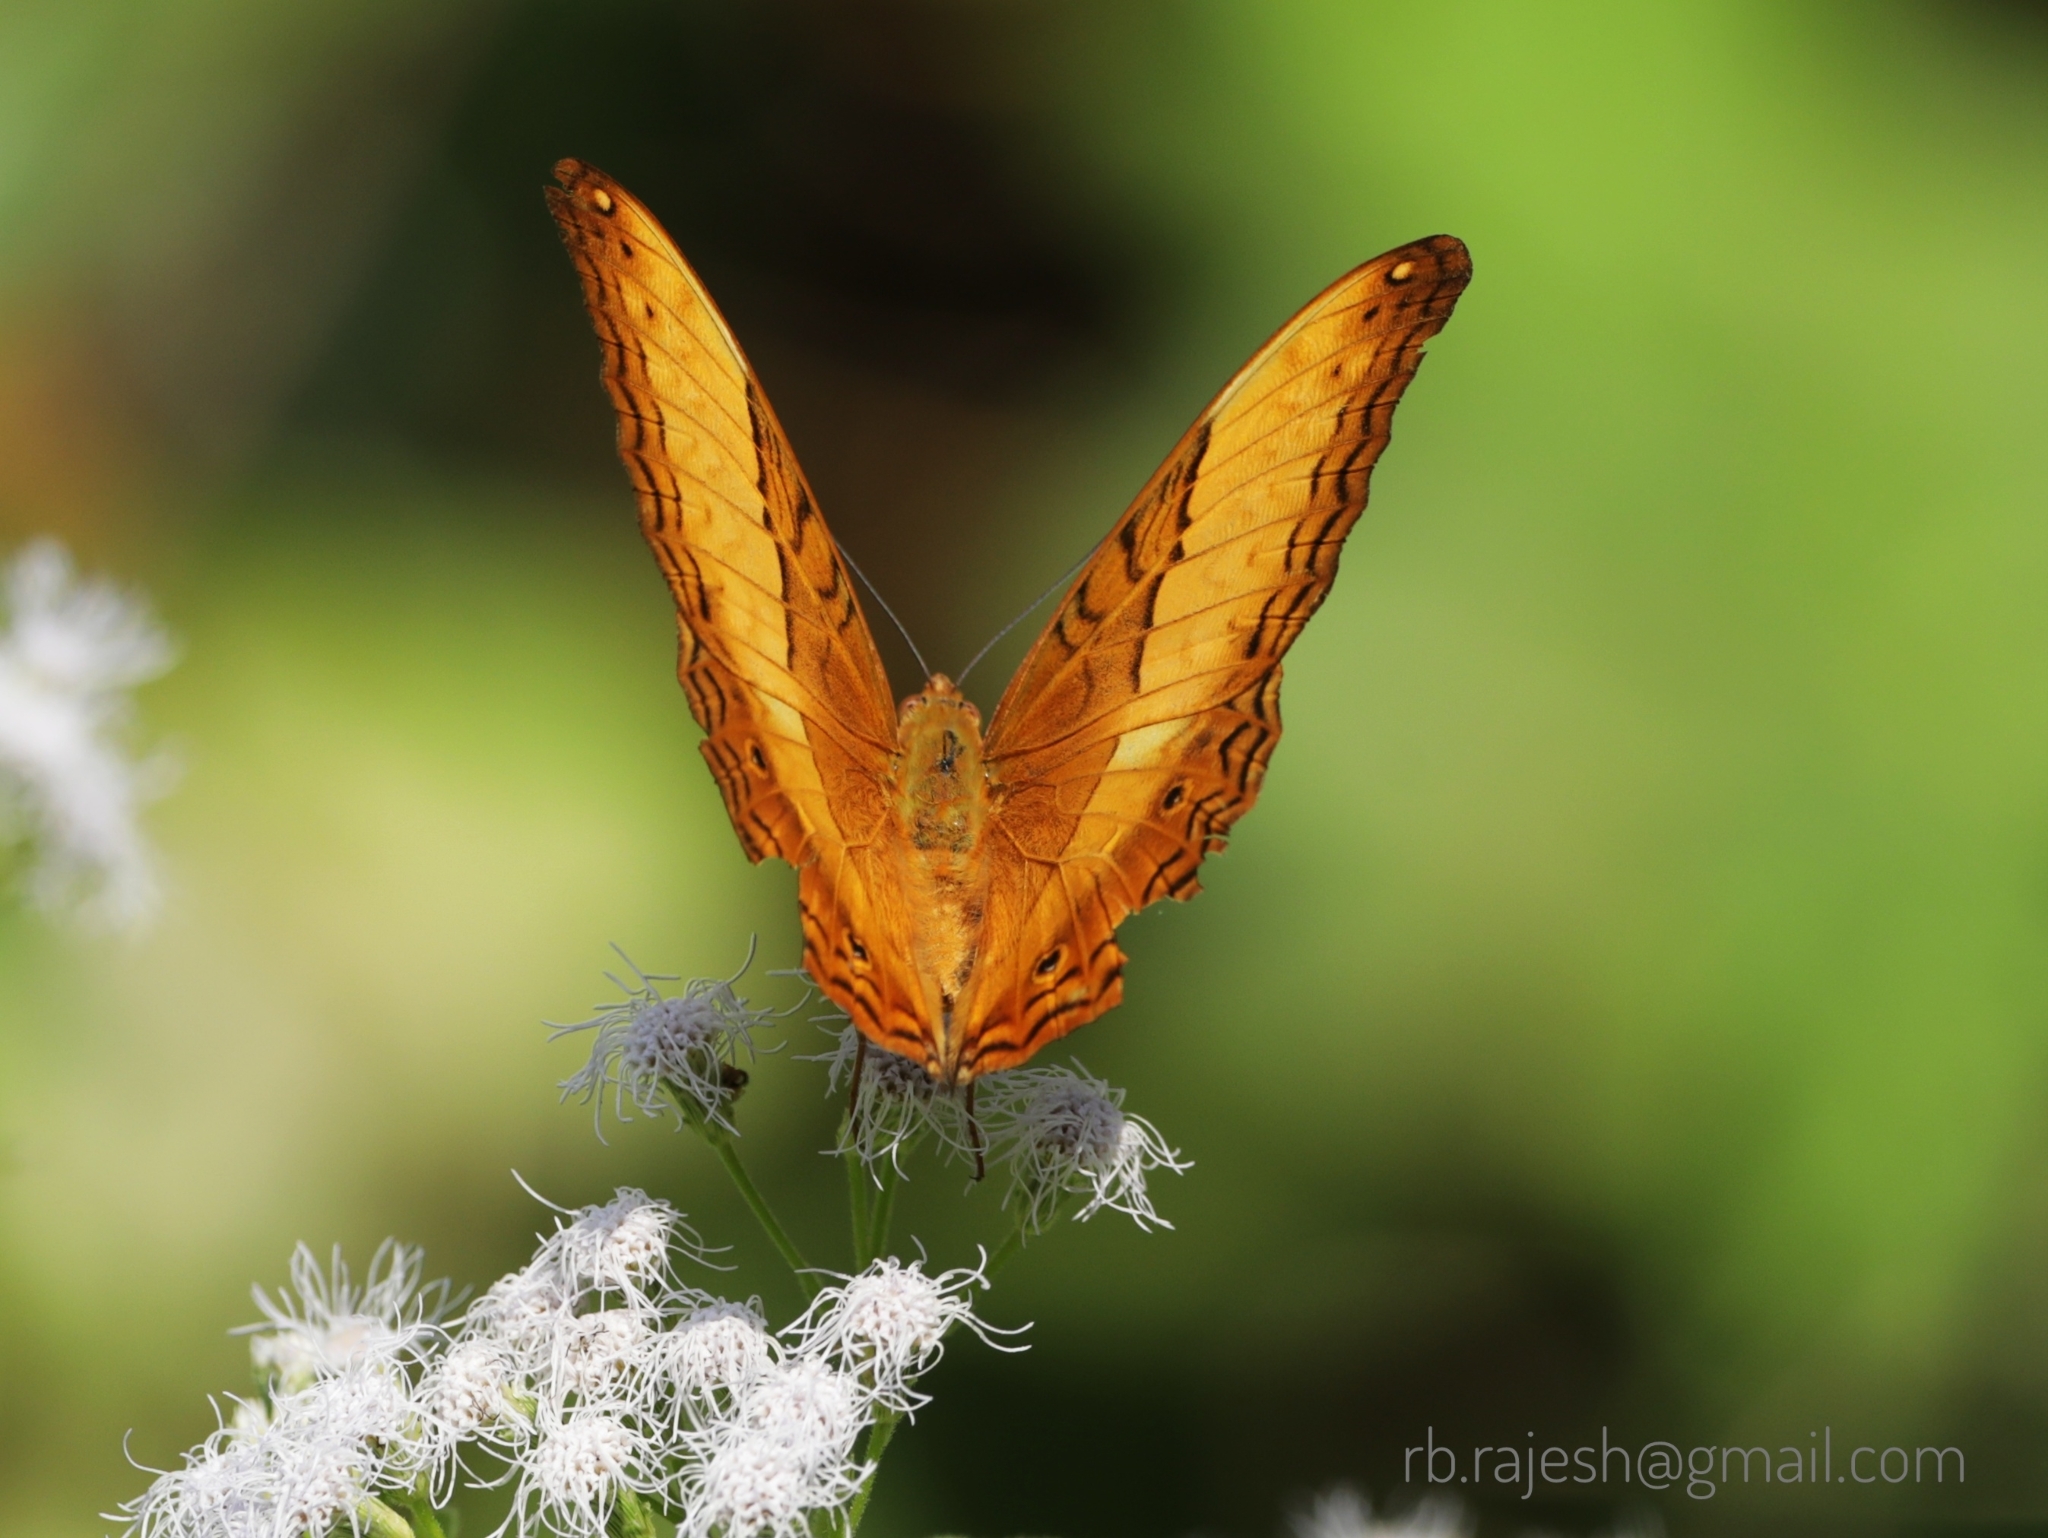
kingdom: Animalia
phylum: Arthropoda
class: Insecta
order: Lepidoptera
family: Nymphalidae
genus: Vindula
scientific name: Vindula erota
